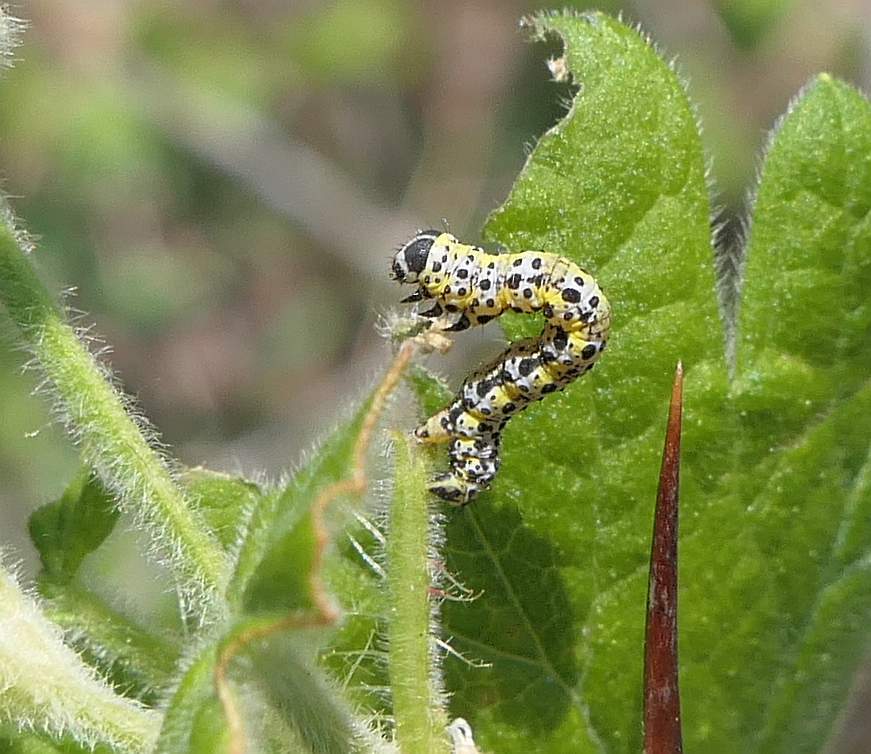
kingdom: Animalia
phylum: Arthropoda
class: Insecta
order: Lepidoptera
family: Geometridae
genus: Macaria
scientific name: Macaria ribearia
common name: Currant spanworm moth
